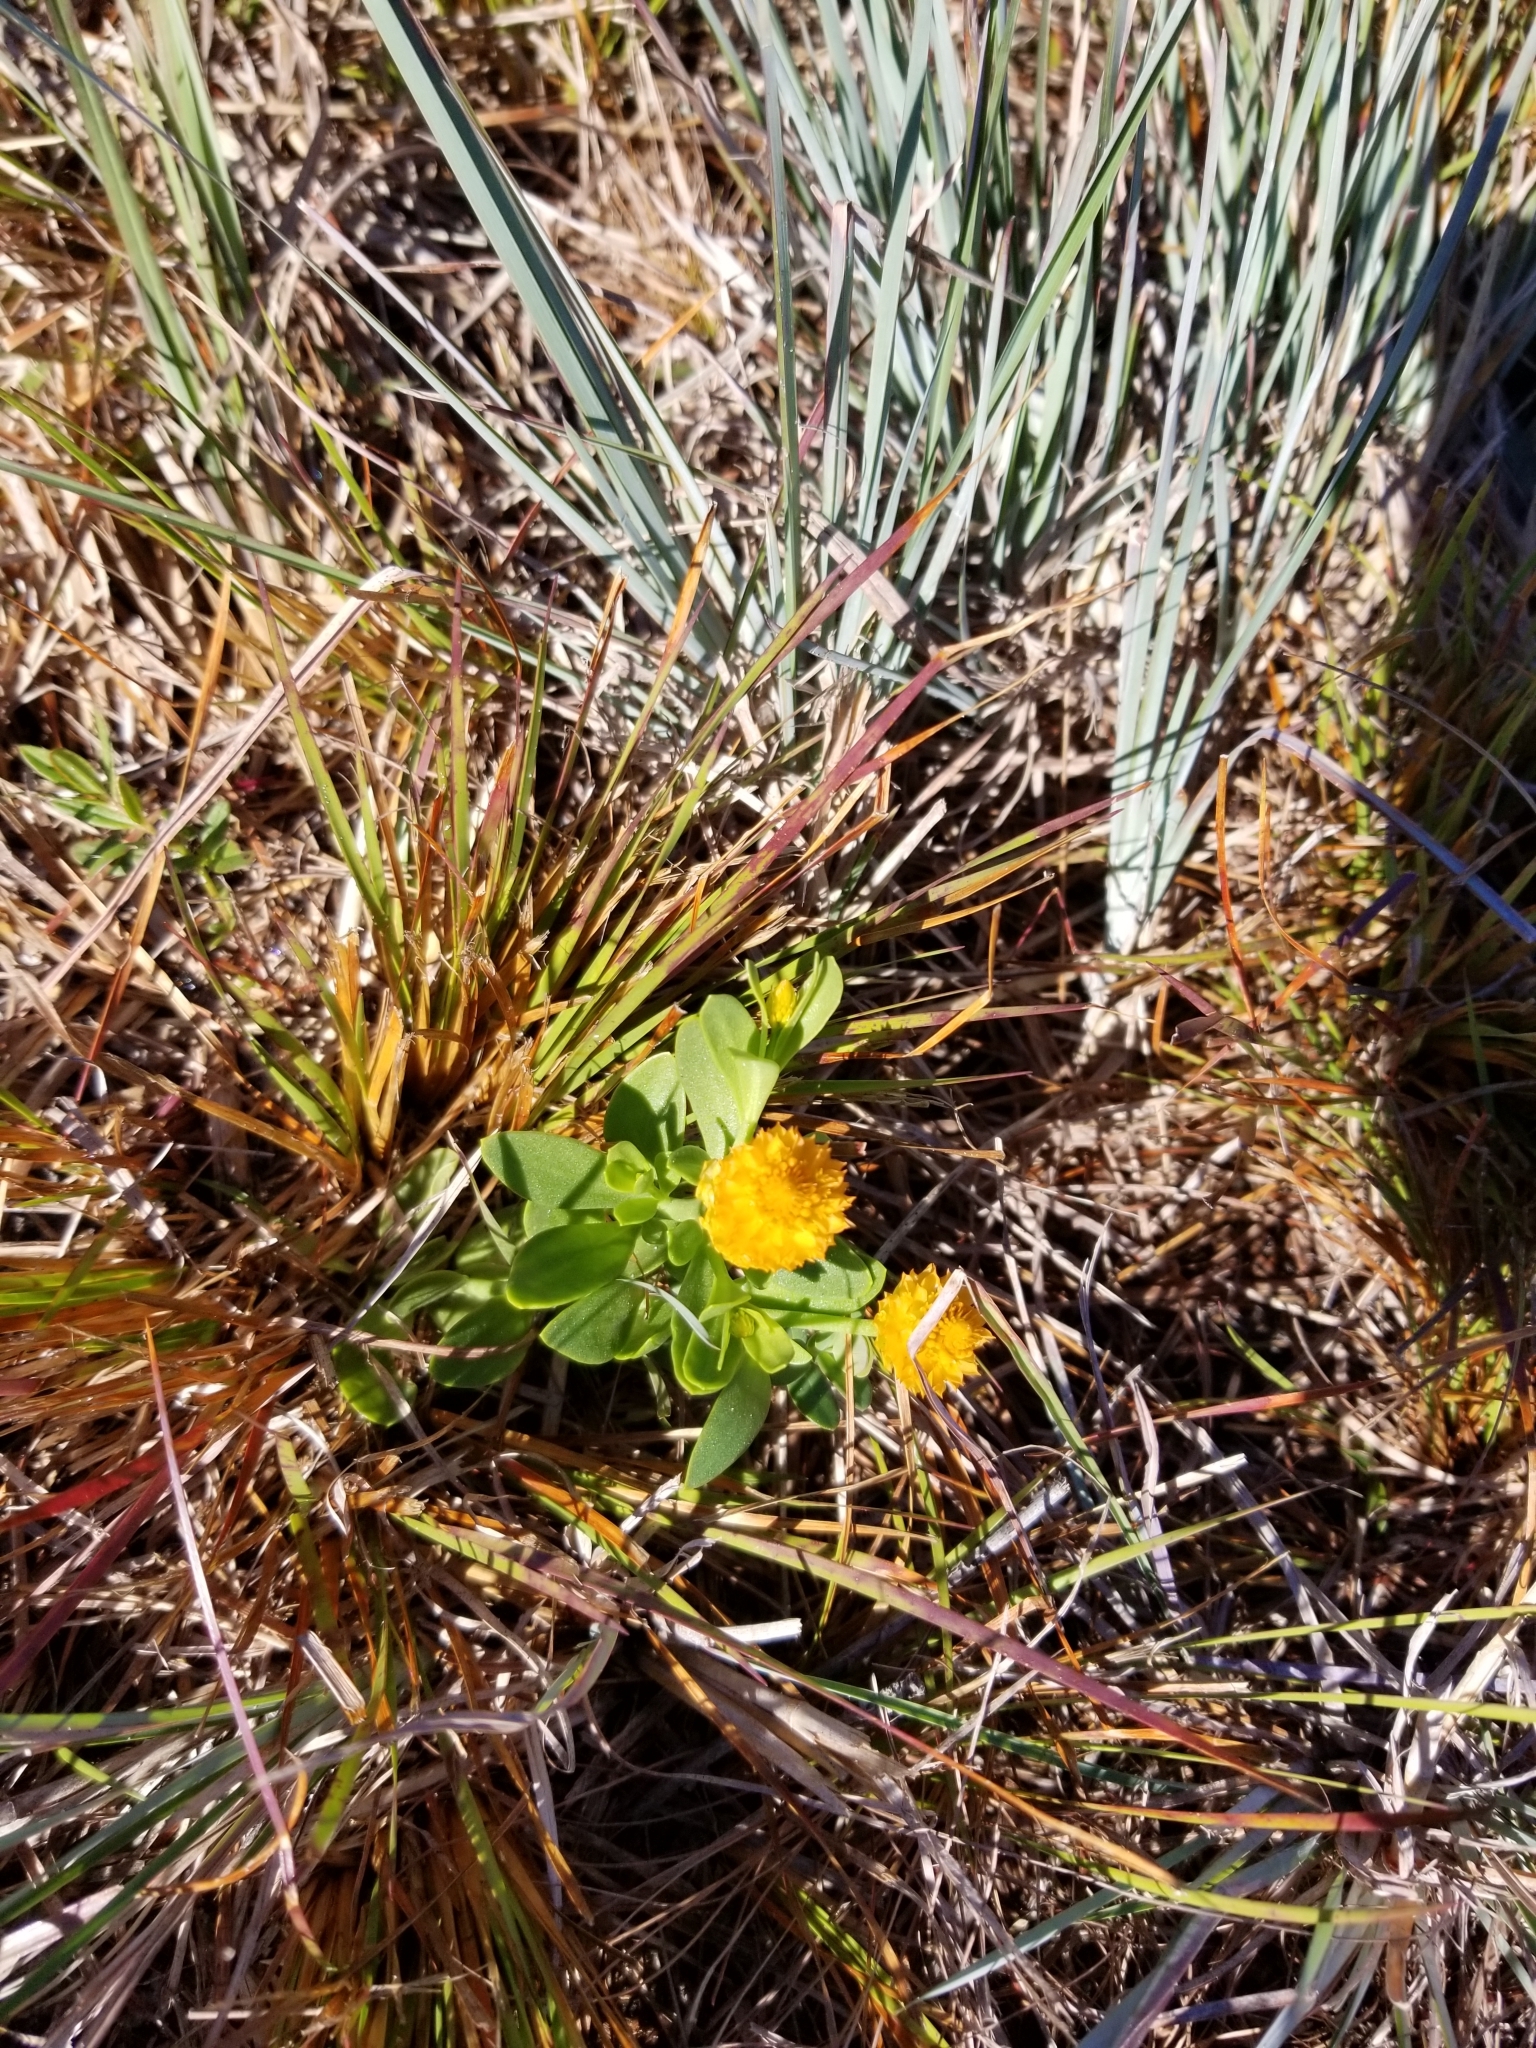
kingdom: Plantae
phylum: Tracheophyta
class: Magnoliopsida
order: Fabales
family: Polygalaceae
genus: Polygala
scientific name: Polygala lutea
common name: Orange milkwort
